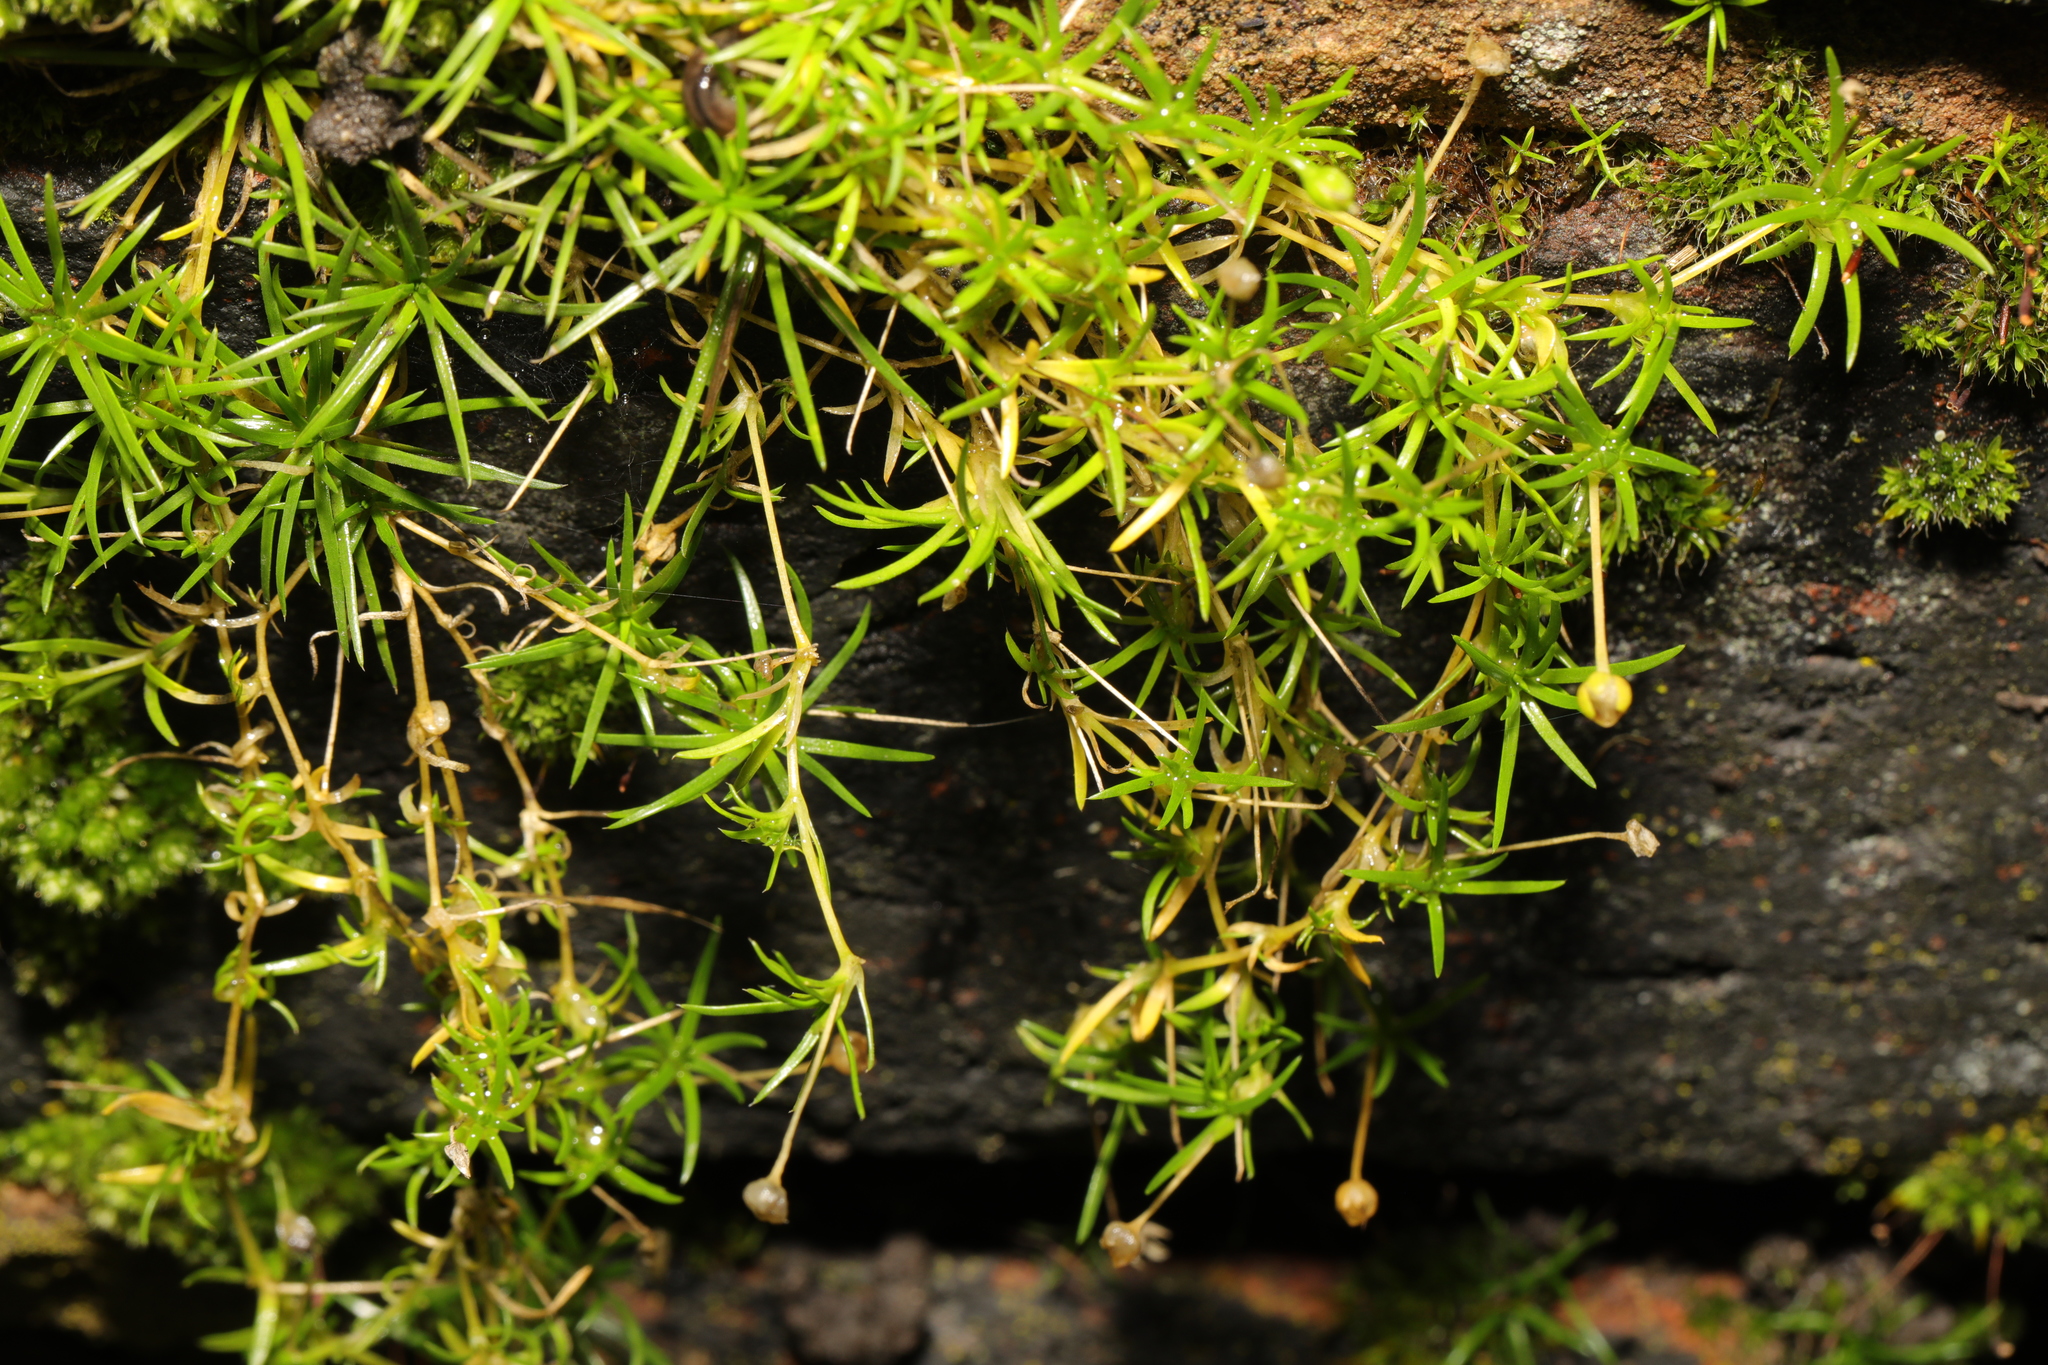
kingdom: Plantae
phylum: Tracheophyta
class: Magnoliopsida
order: Caryophyllales
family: Caryophyllaceae
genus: Sagina
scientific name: Sagina procumbens
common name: Procumbent pearlwort
